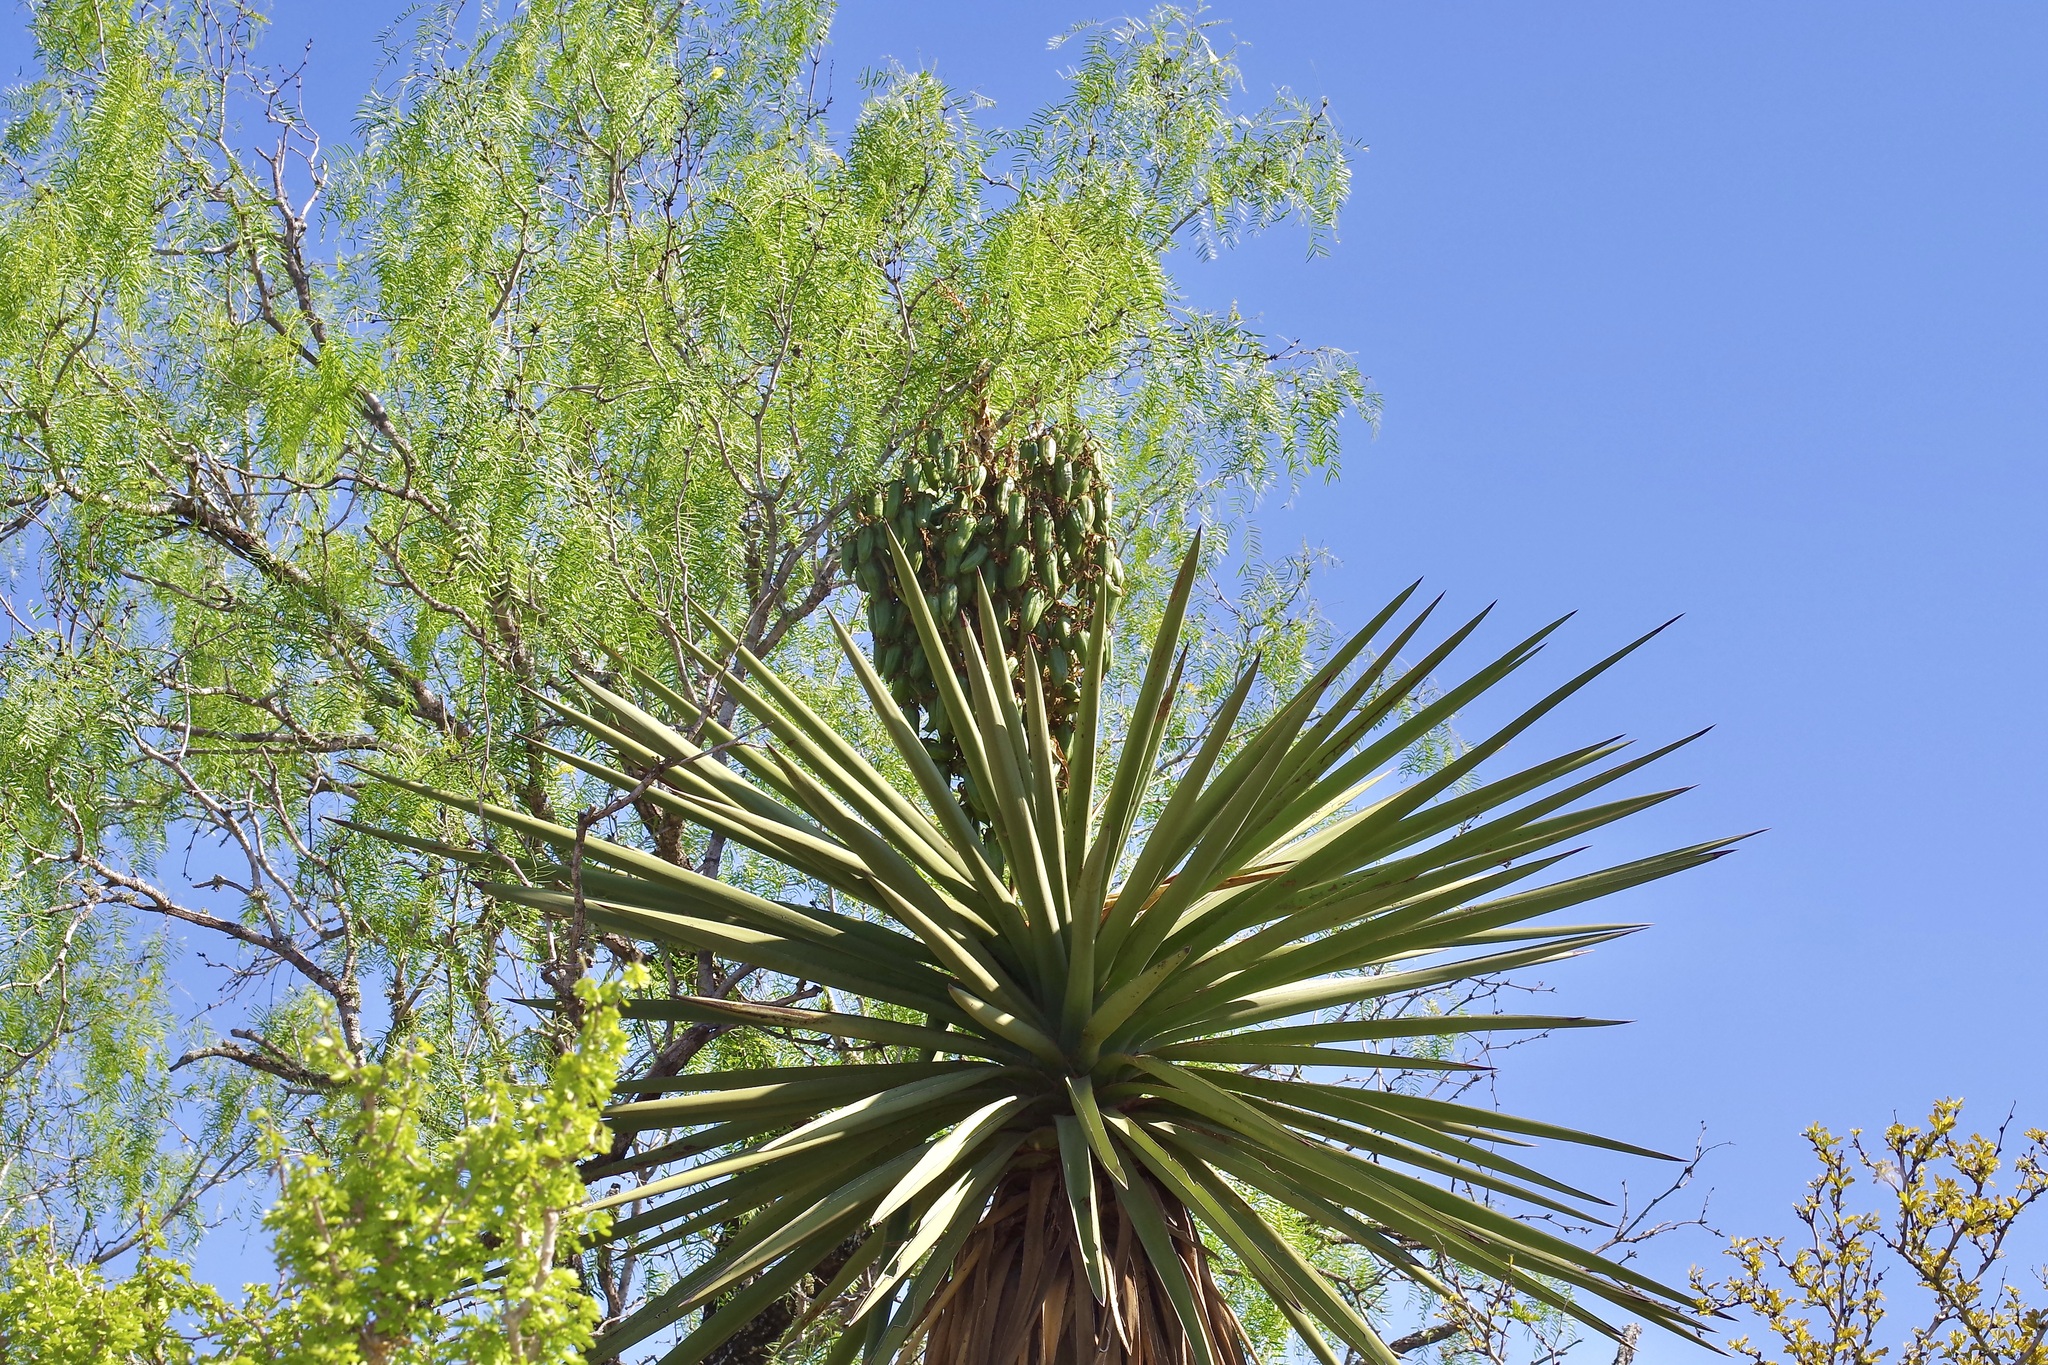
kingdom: Plantae
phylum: Tracheophyta
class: Liliopsida
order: Asparagales
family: Asparagaceae
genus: Yucca
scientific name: Yucca treculiana
